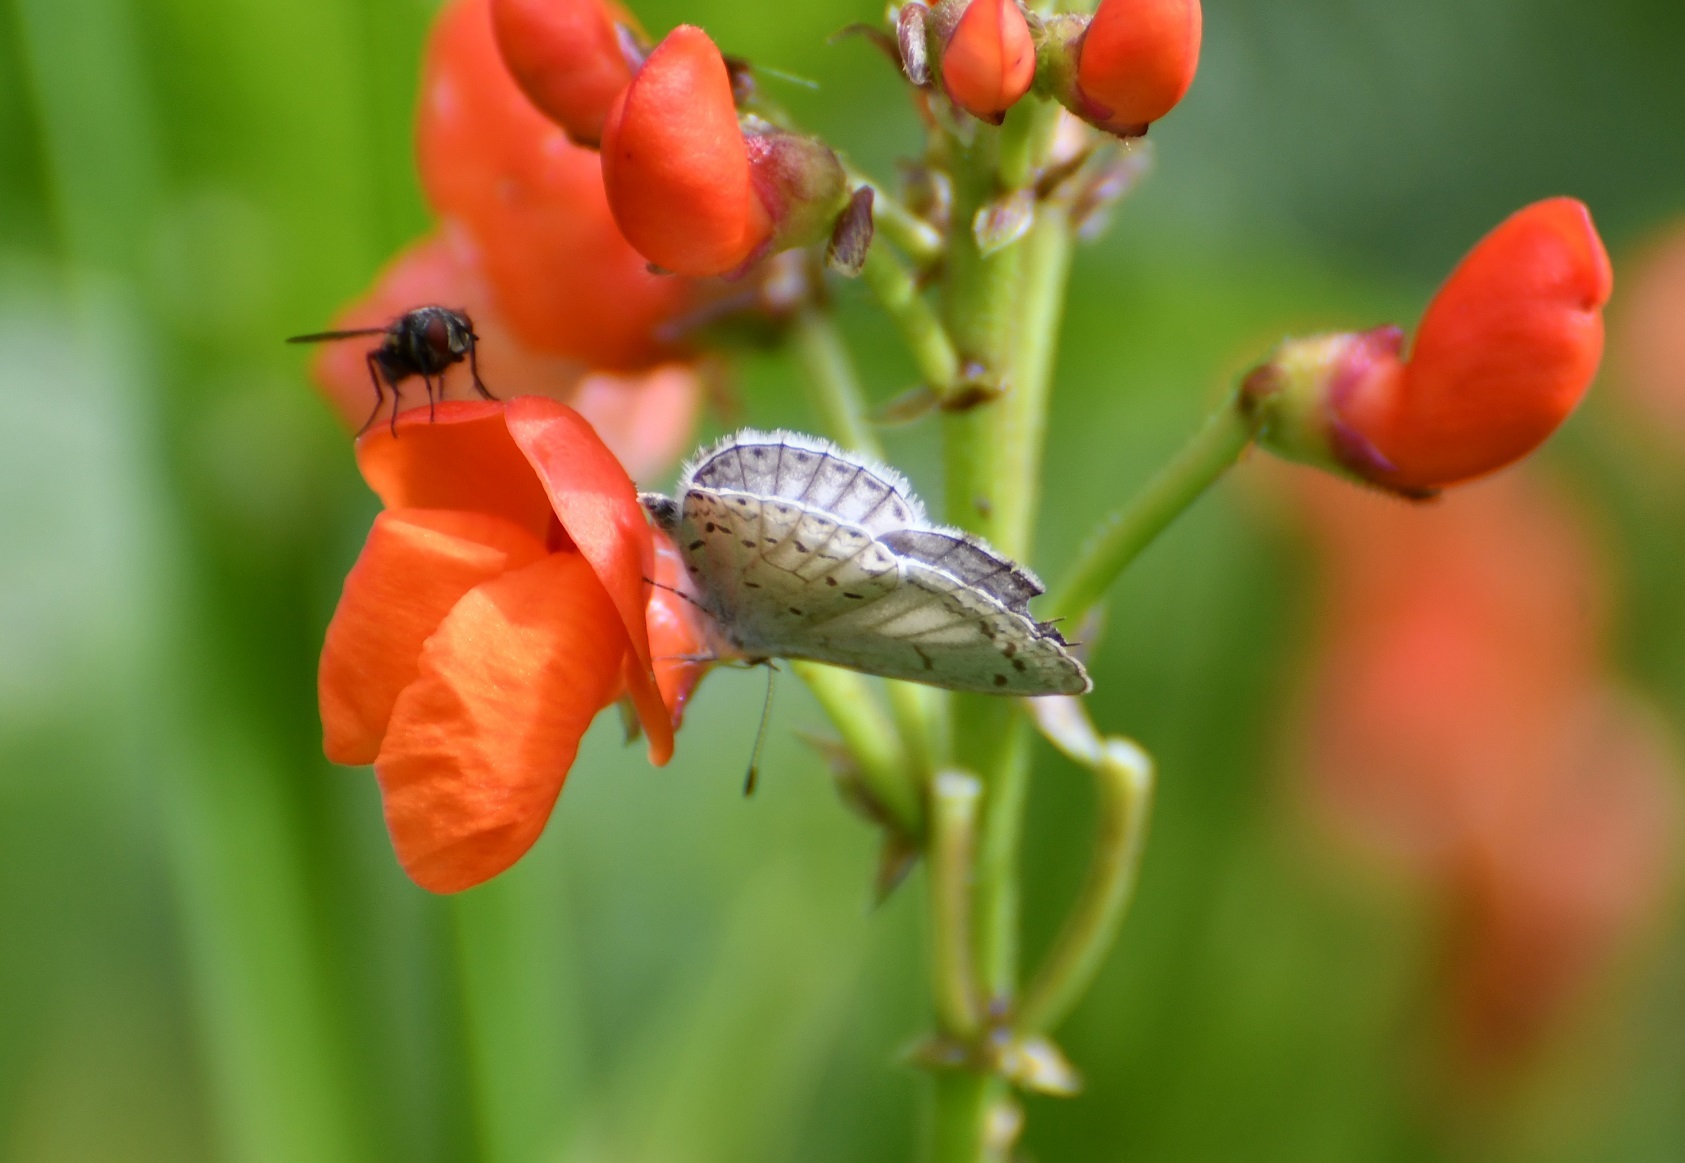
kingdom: Animalia
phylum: Arthropoda
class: Insecta
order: Lepidoptera
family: Lycaenidae
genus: Celastrina
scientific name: Celastrina ladon
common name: Spring azure
